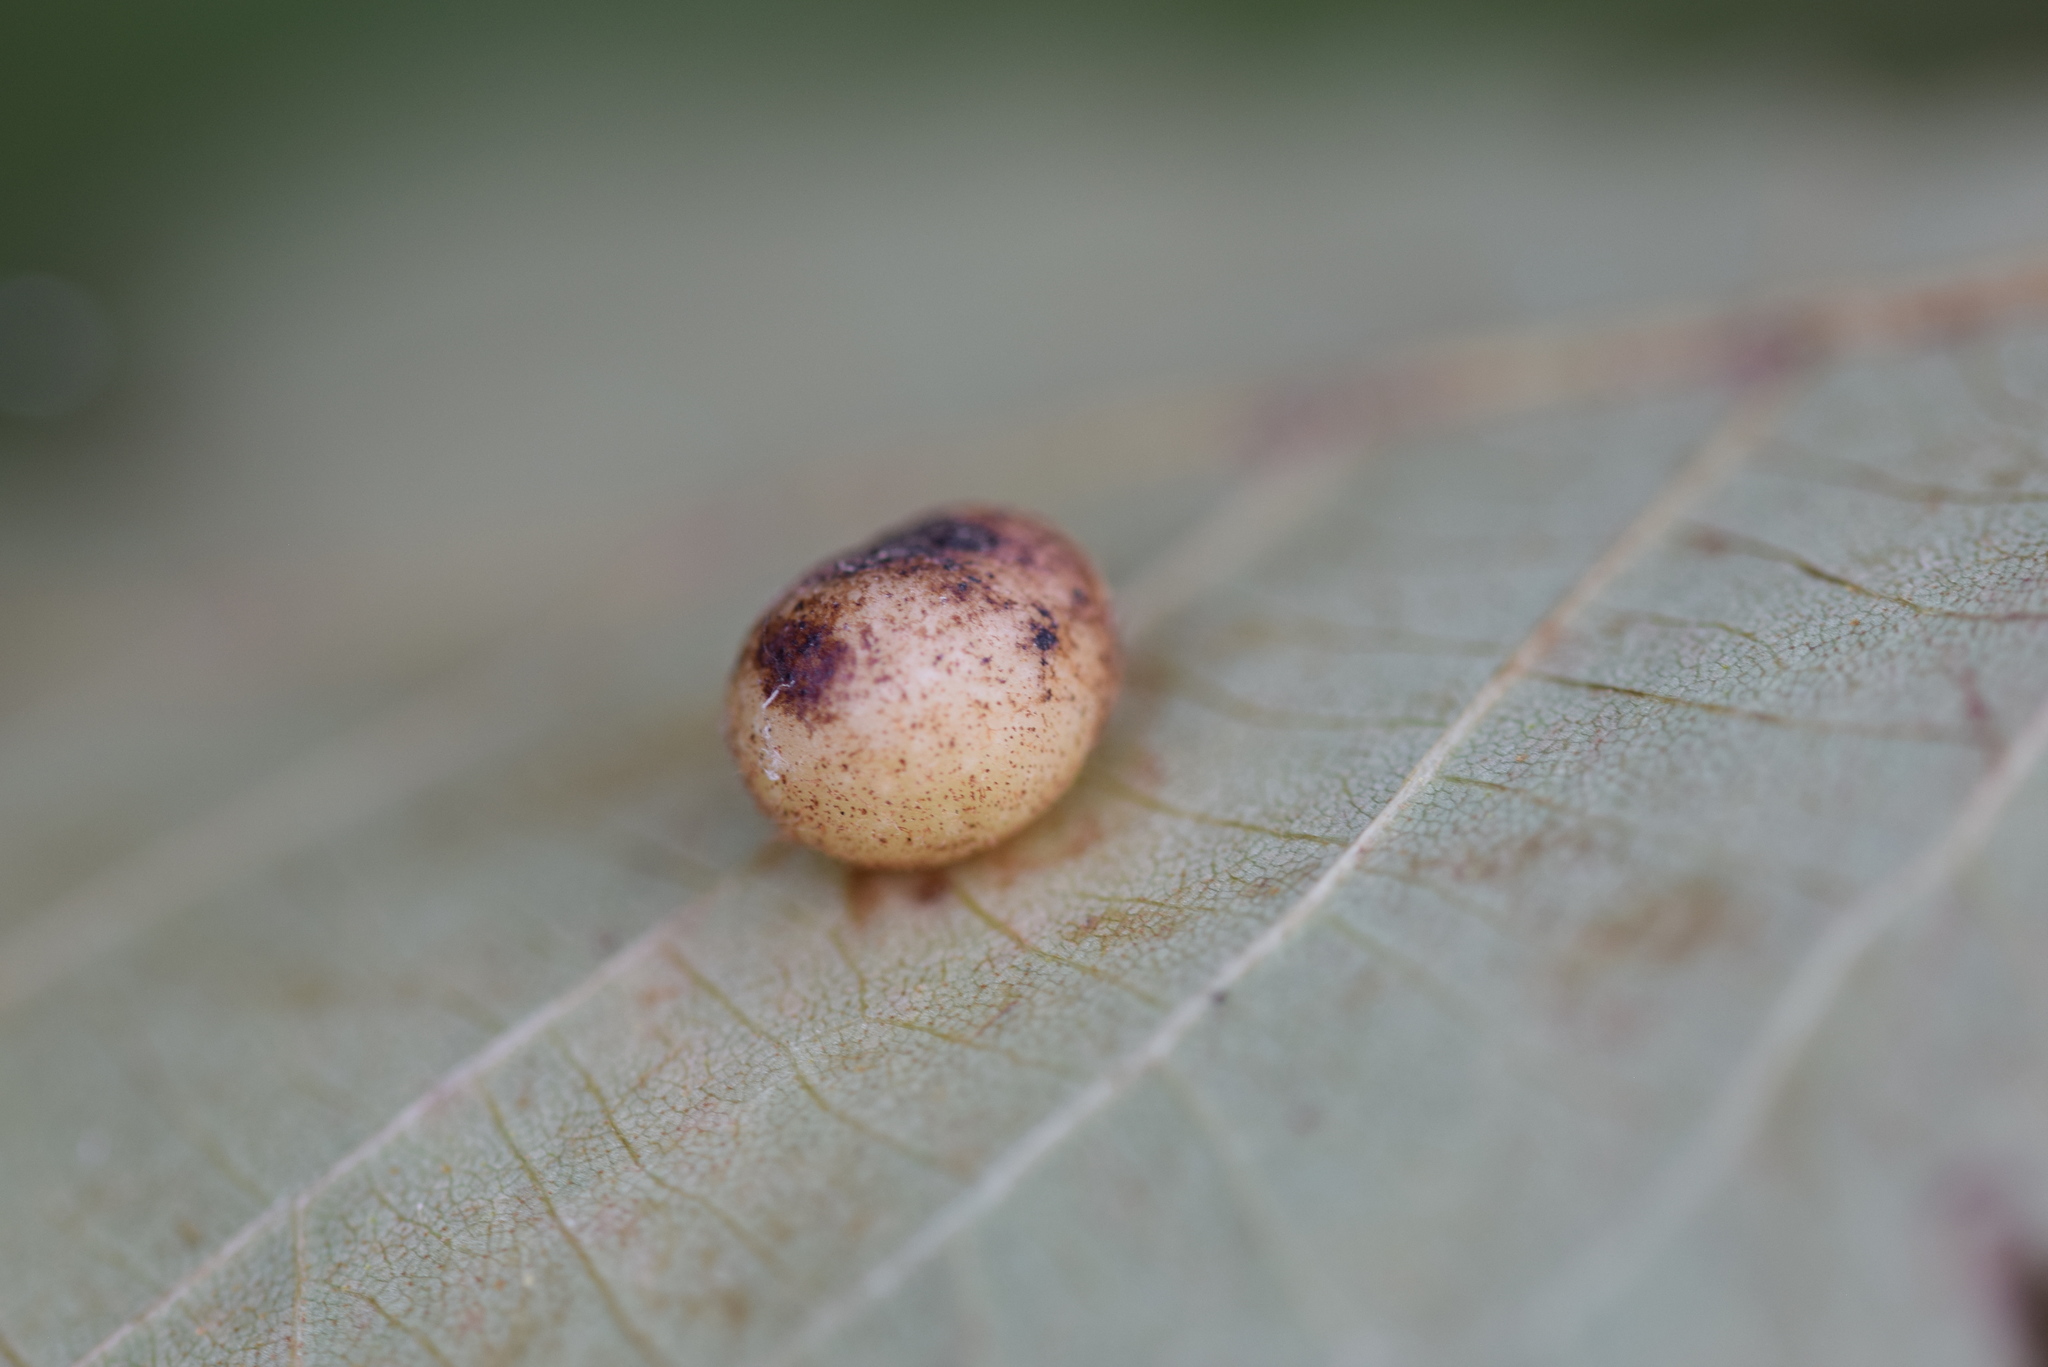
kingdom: Animalia
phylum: Arthropoda
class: Insecta
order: Diptera
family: Cecidomyiidae
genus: Caryomyia
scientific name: Caryomyia caryae
